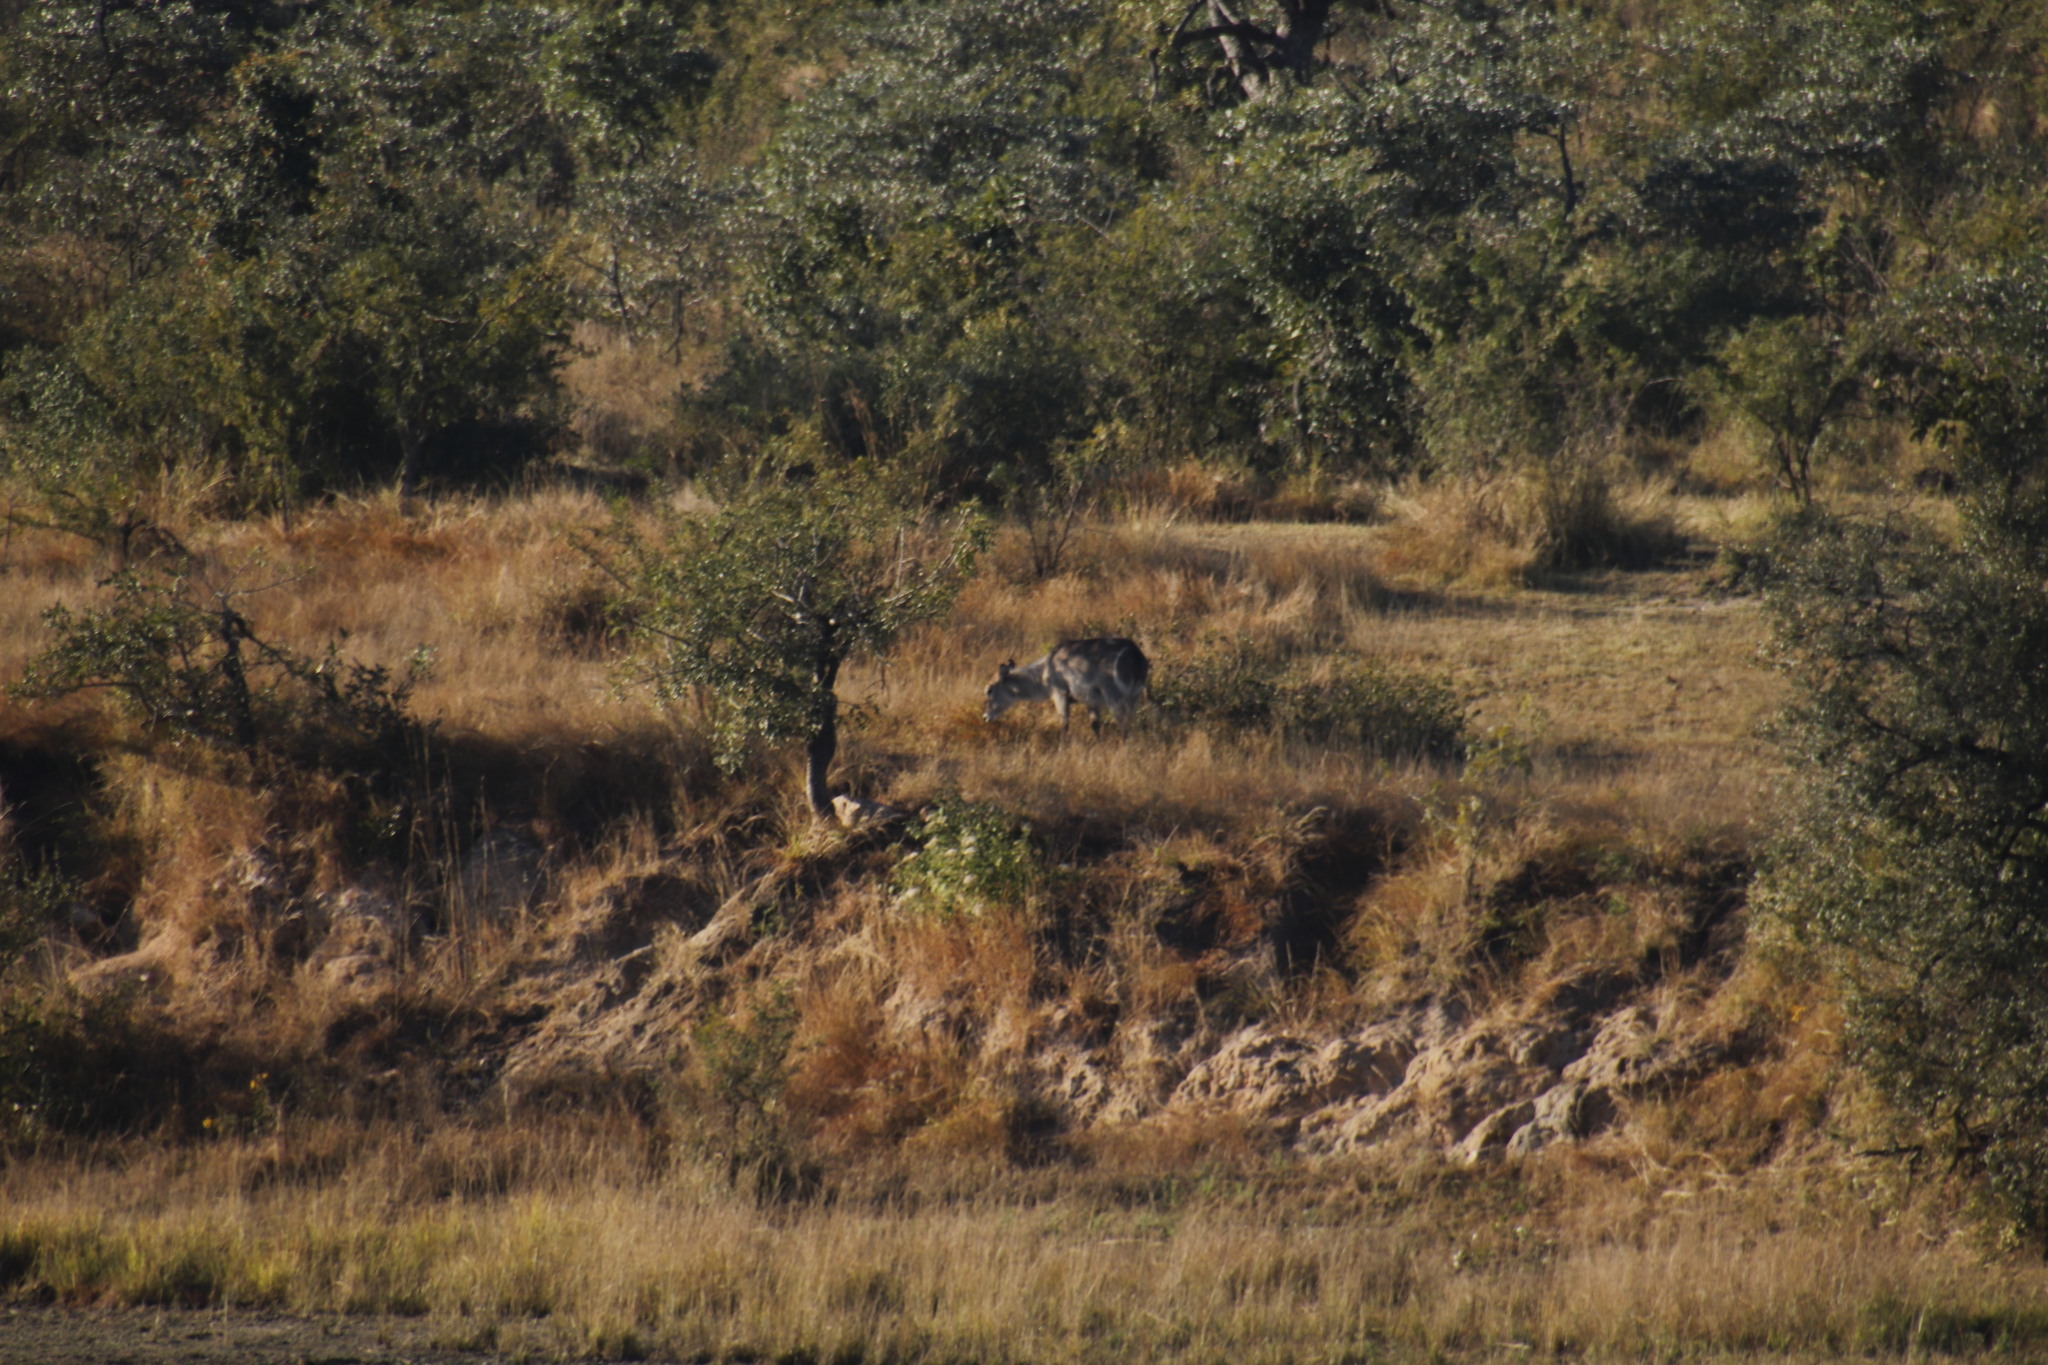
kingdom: Plantae
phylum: Tracheophyta
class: Magnoliopsida
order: Myrtales
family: Combretaceae
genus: Terminalia
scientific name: Terminalia sericea
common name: Clusterleaf
